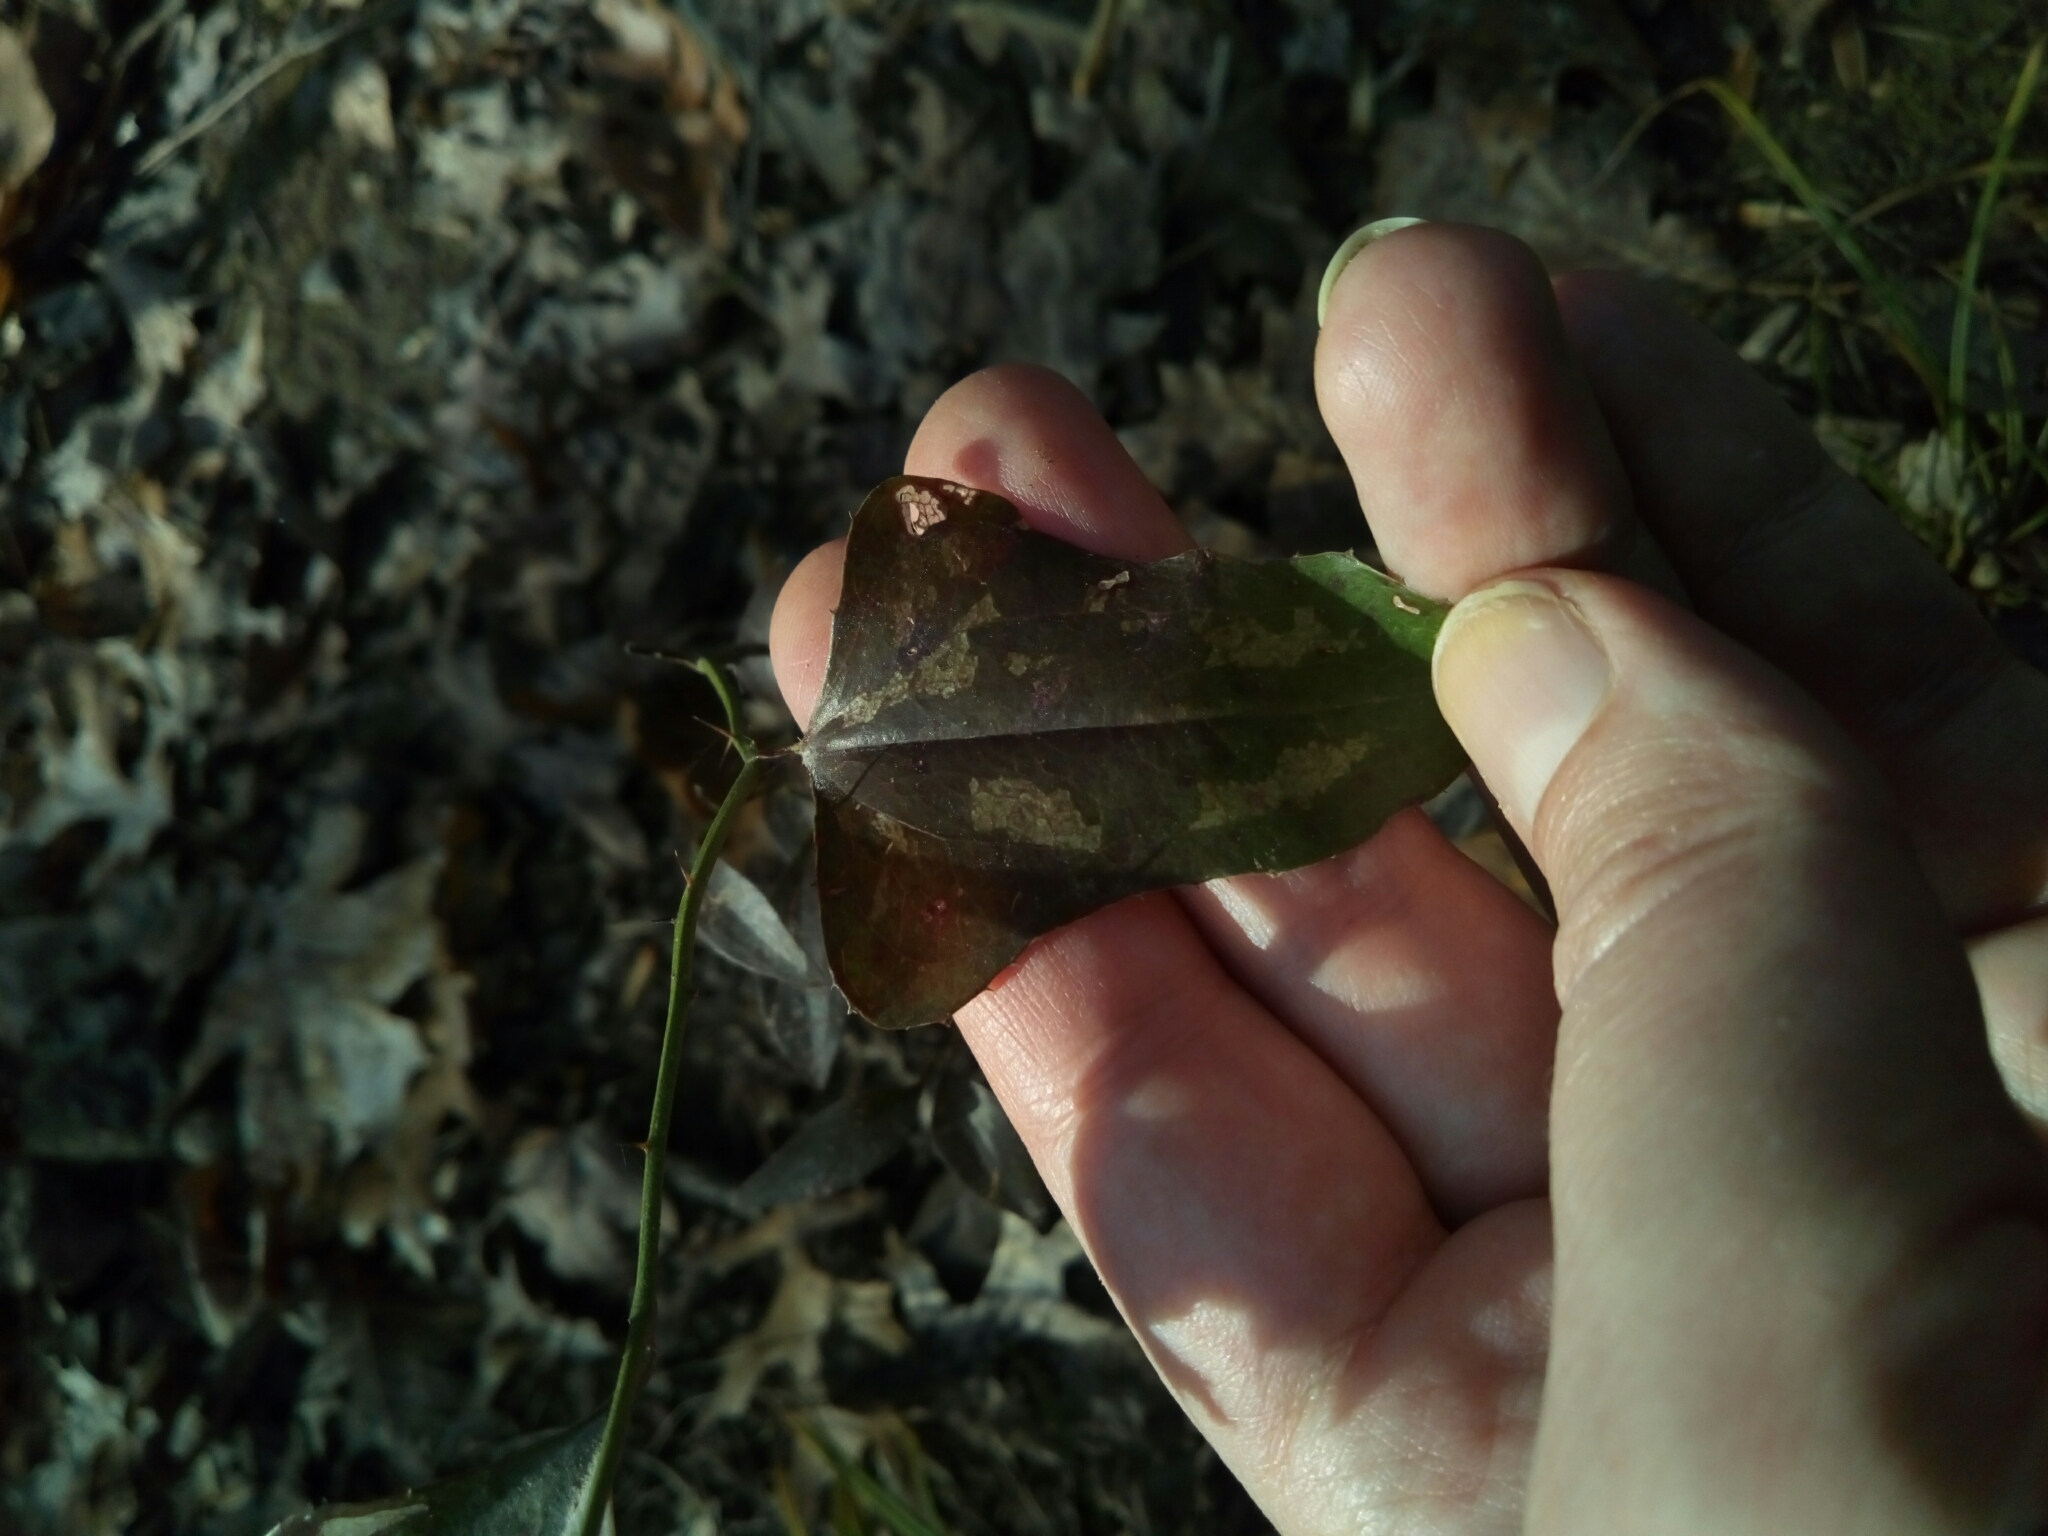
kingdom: Plantae
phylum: Tracheophyta
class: Liliopsida
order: Liliales
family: Smilacaceae
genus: Smilax
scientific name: Smilax bona-nox
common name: Catbrier
